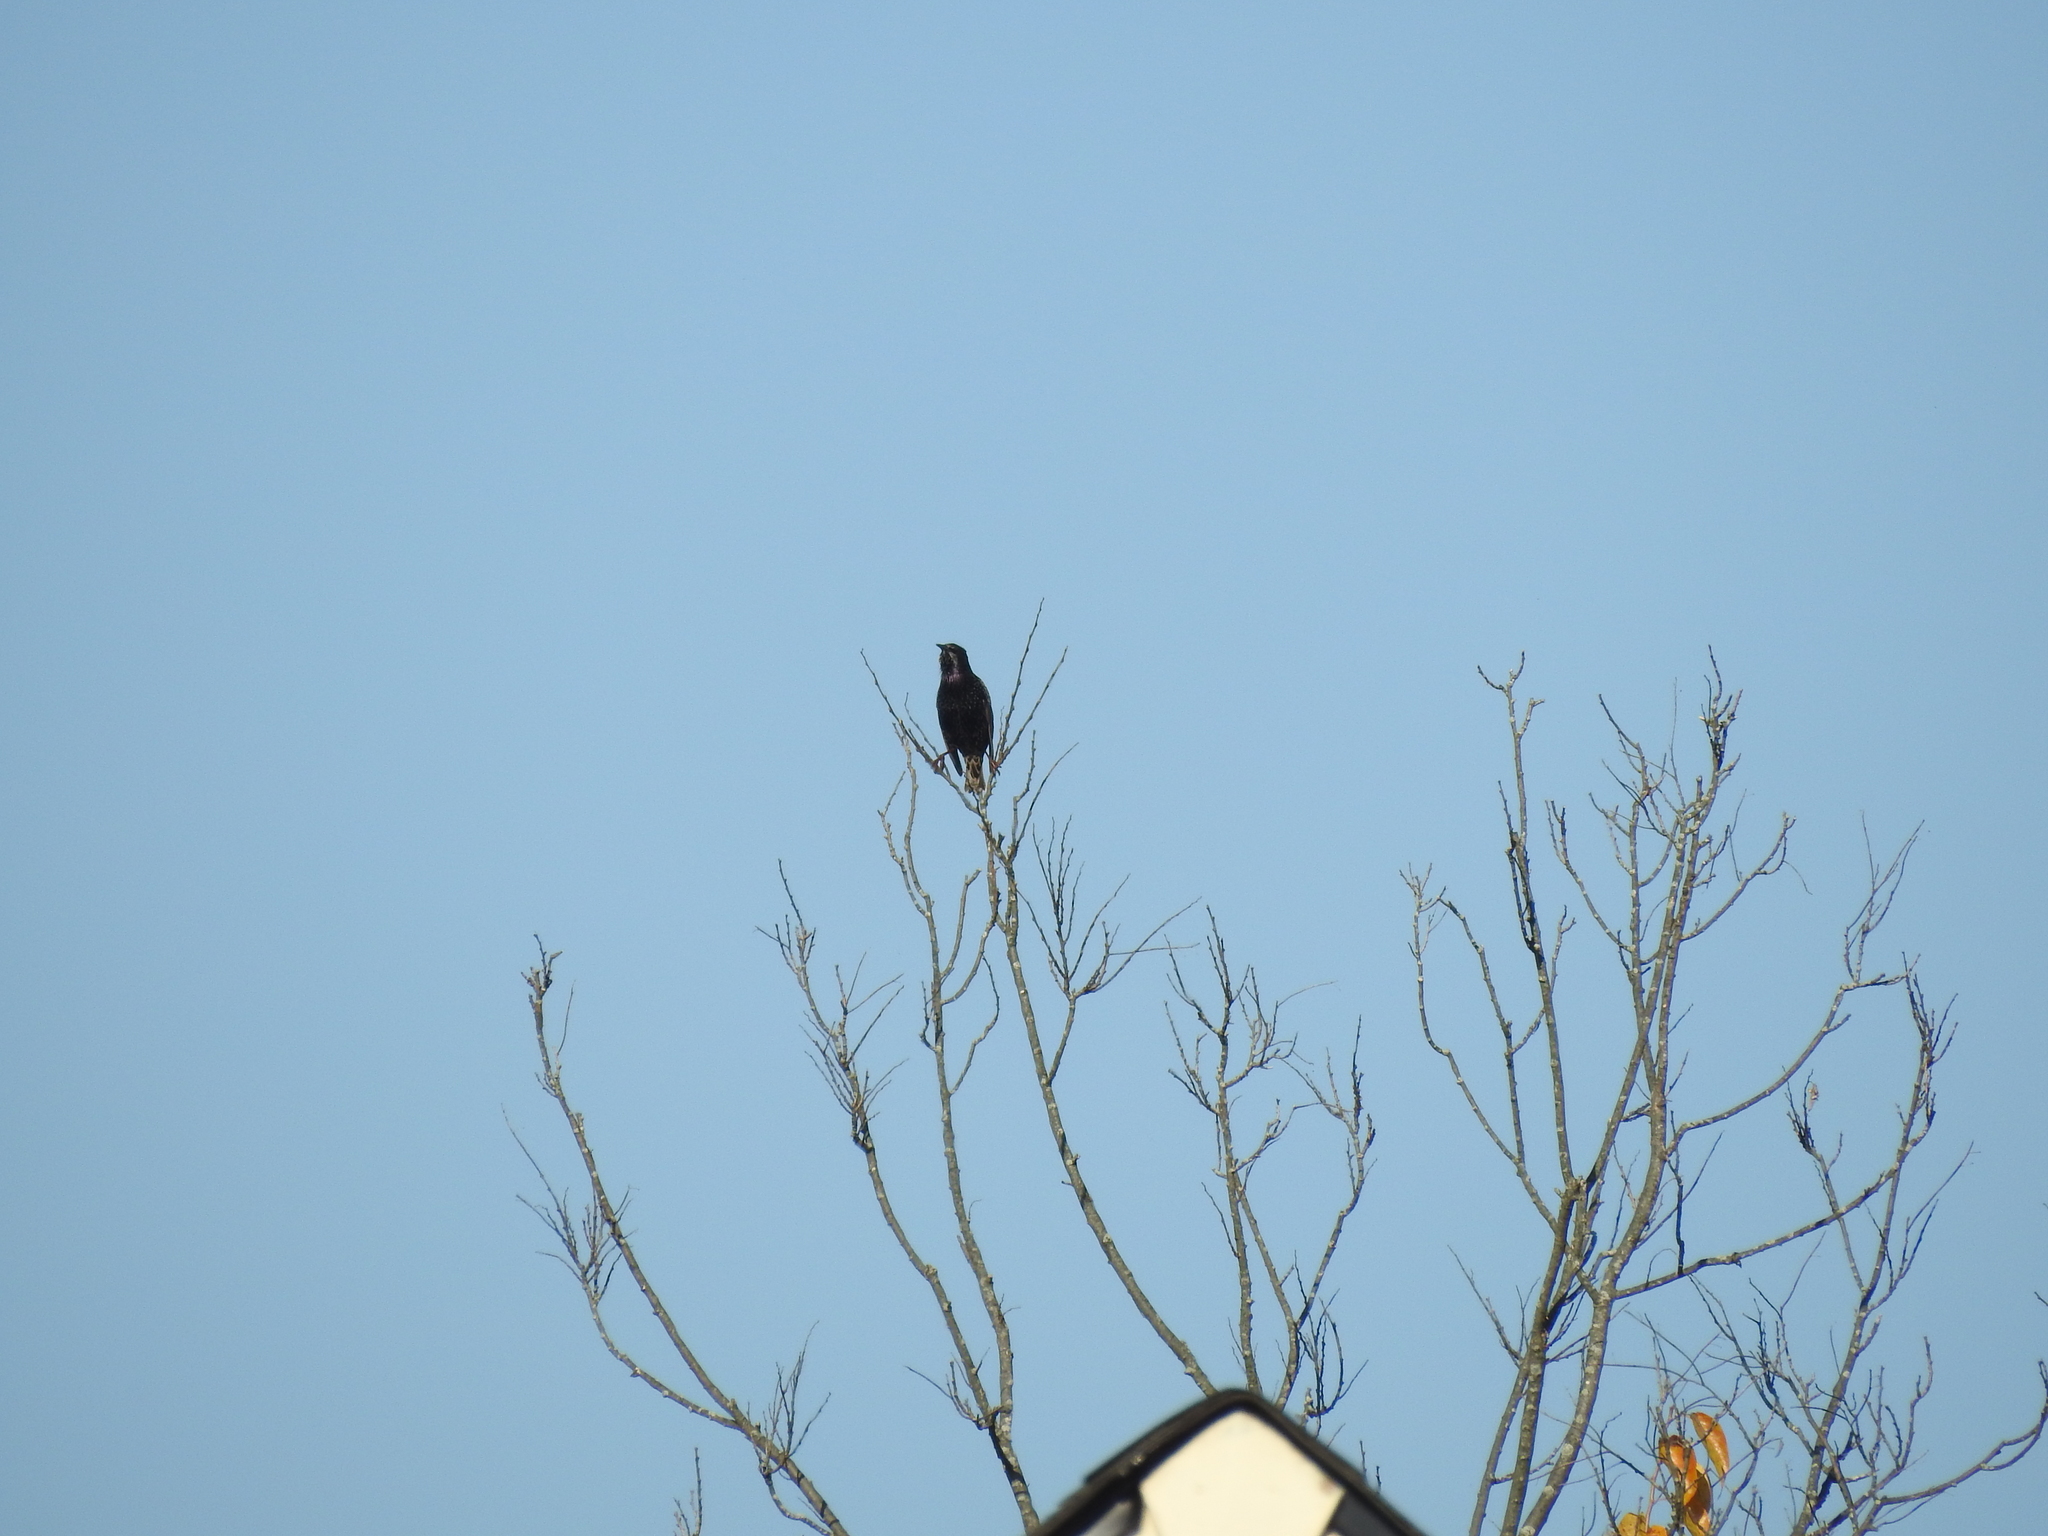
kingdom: Animalia
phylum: Chordata
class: Aves
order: Passeriformes
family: Sturnidae
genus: Sturnus
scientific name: Sturnus vulgaris
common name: Common starling
